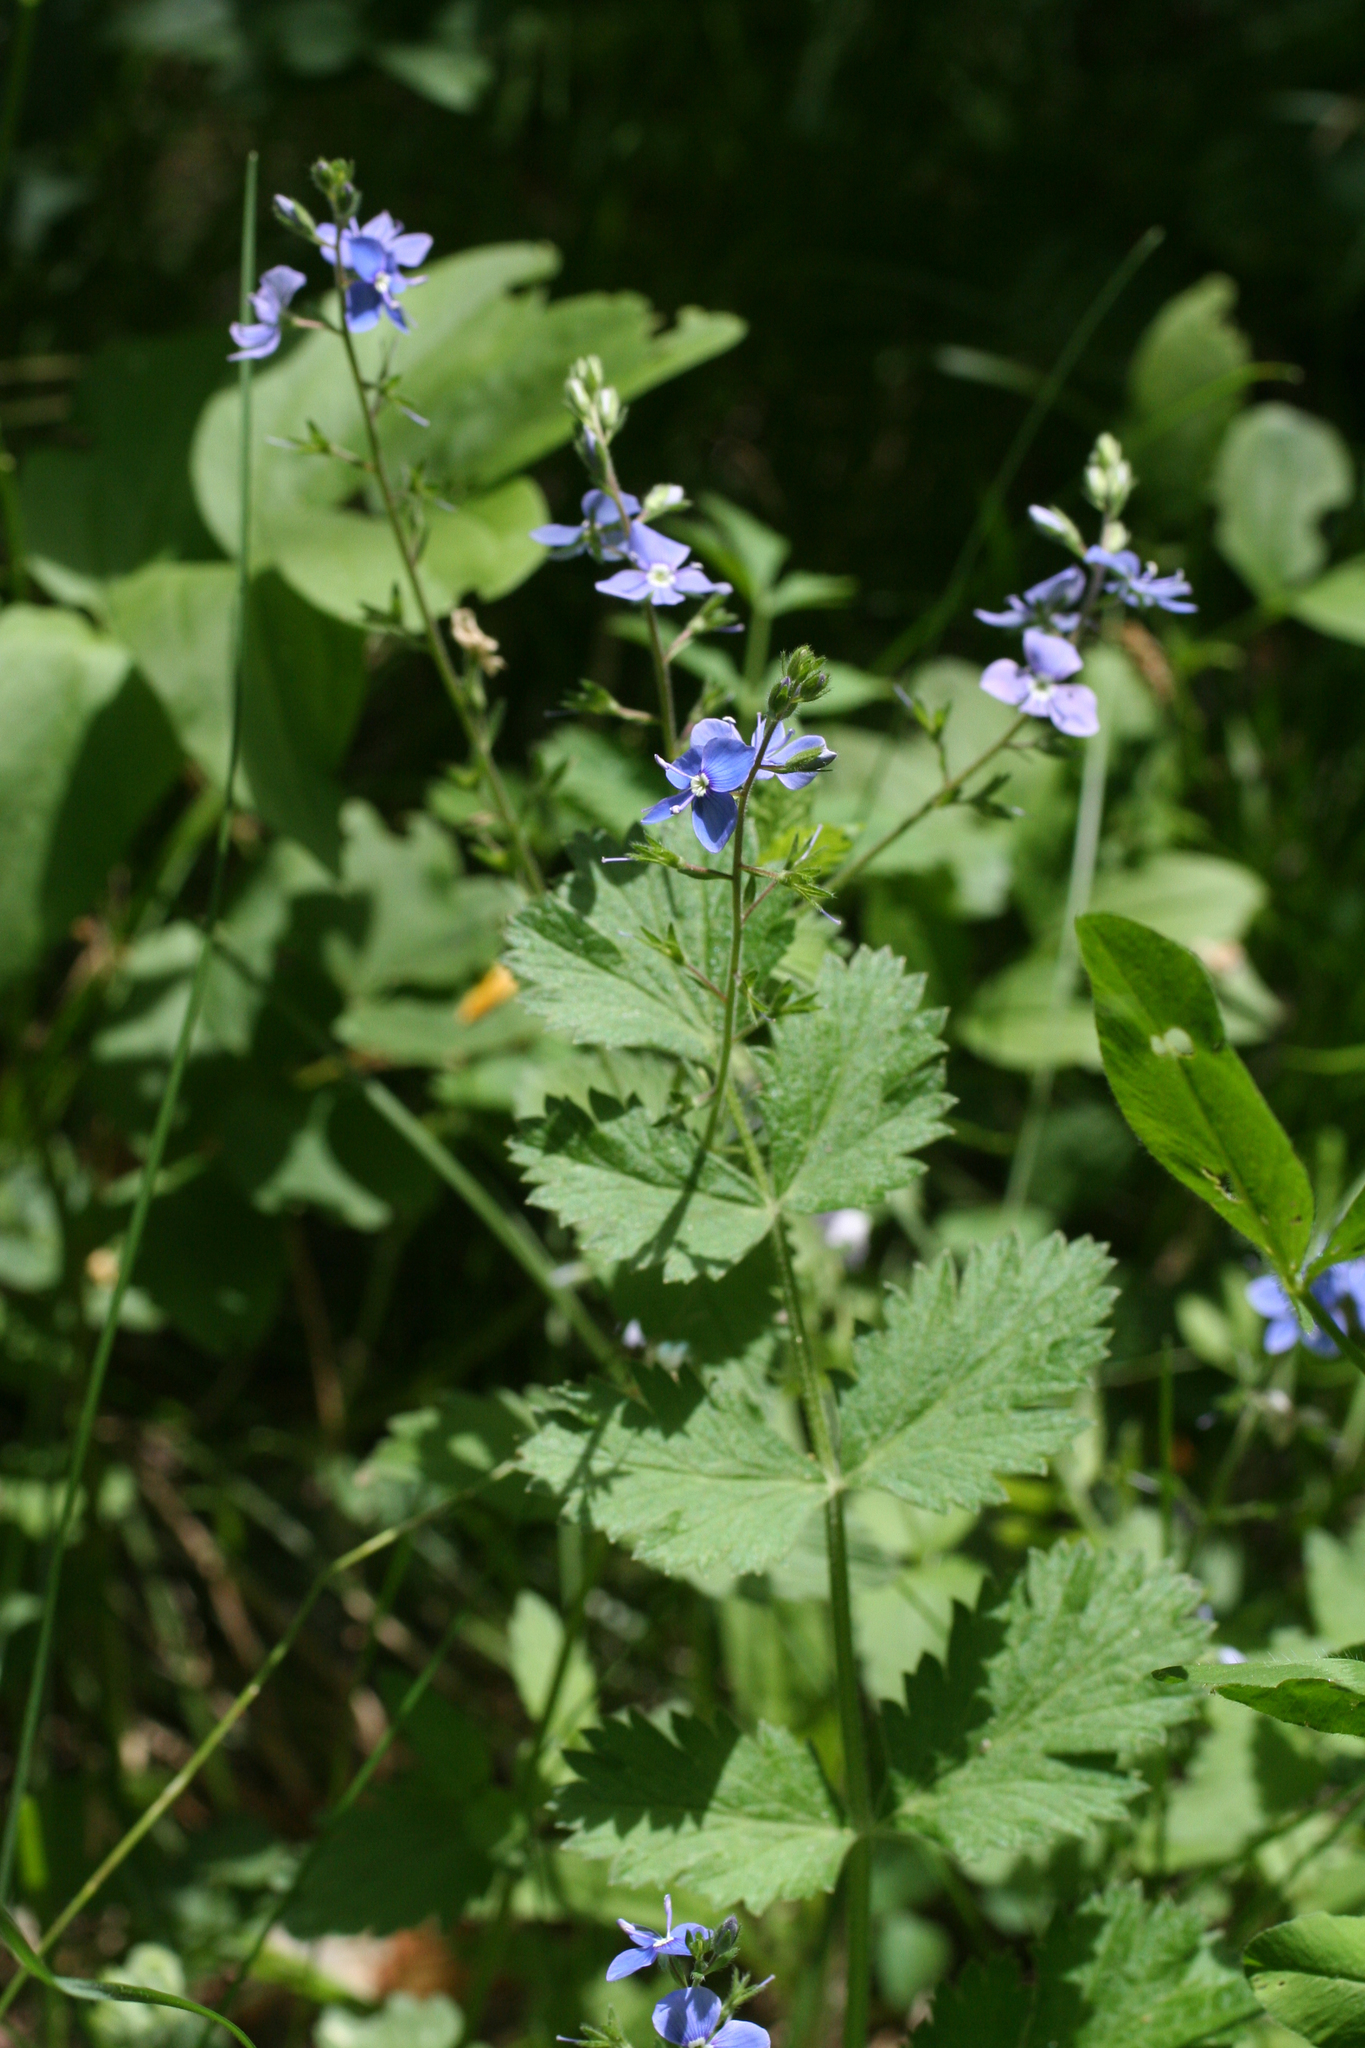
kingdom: Plantae
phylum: Tracheophyta
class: Magnoliopsida
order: Lamiales
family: Plantaginaceae
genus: Veronica
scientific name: Veronica chamaedrys
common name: Germander speedwell
